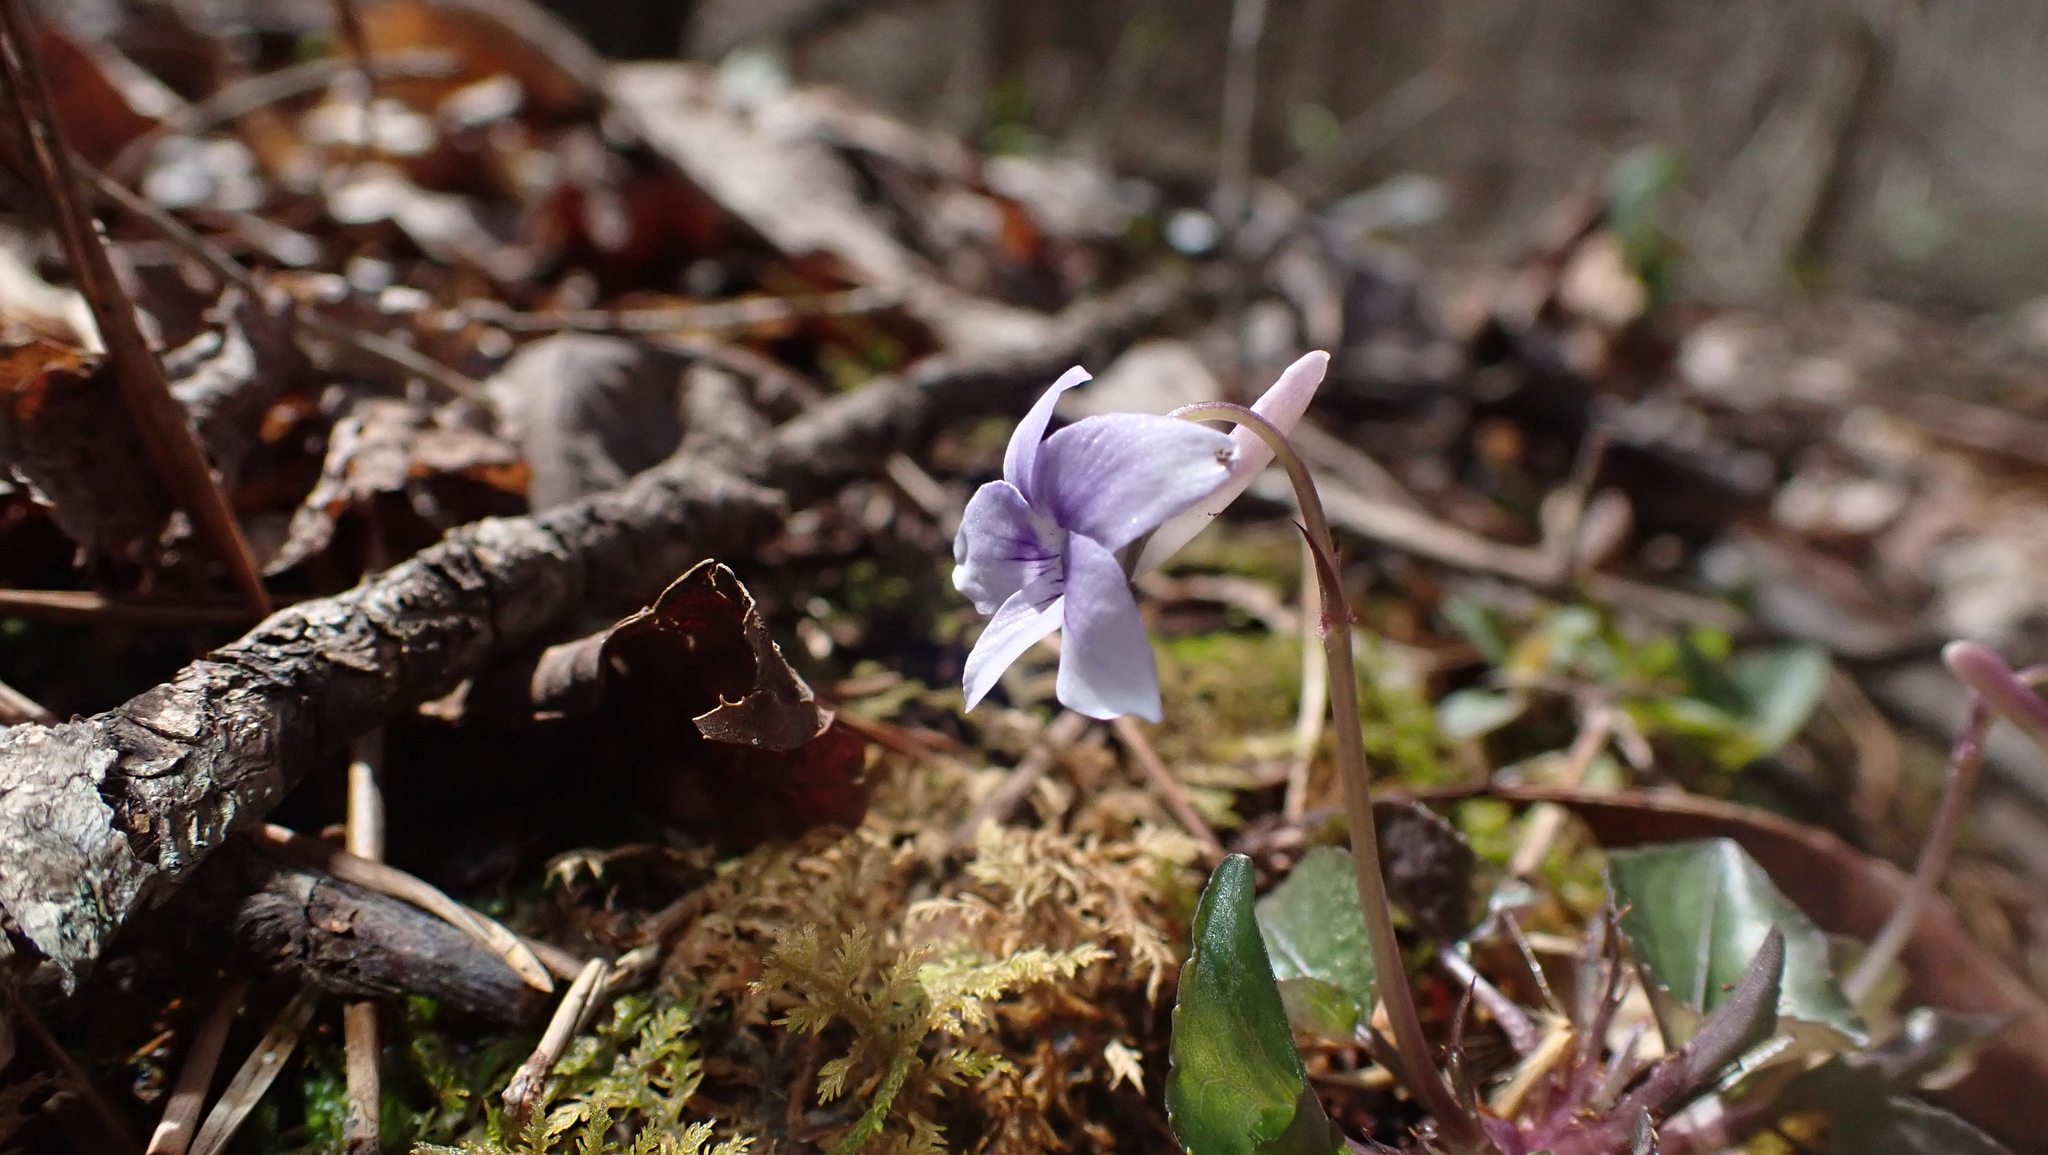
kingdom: Plantae
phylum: Tracheophyta
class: Magnoliopsida
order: Malpighiales
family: Violaceae
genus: Viola
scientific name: Viola rostrata
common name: Long-spur violet
